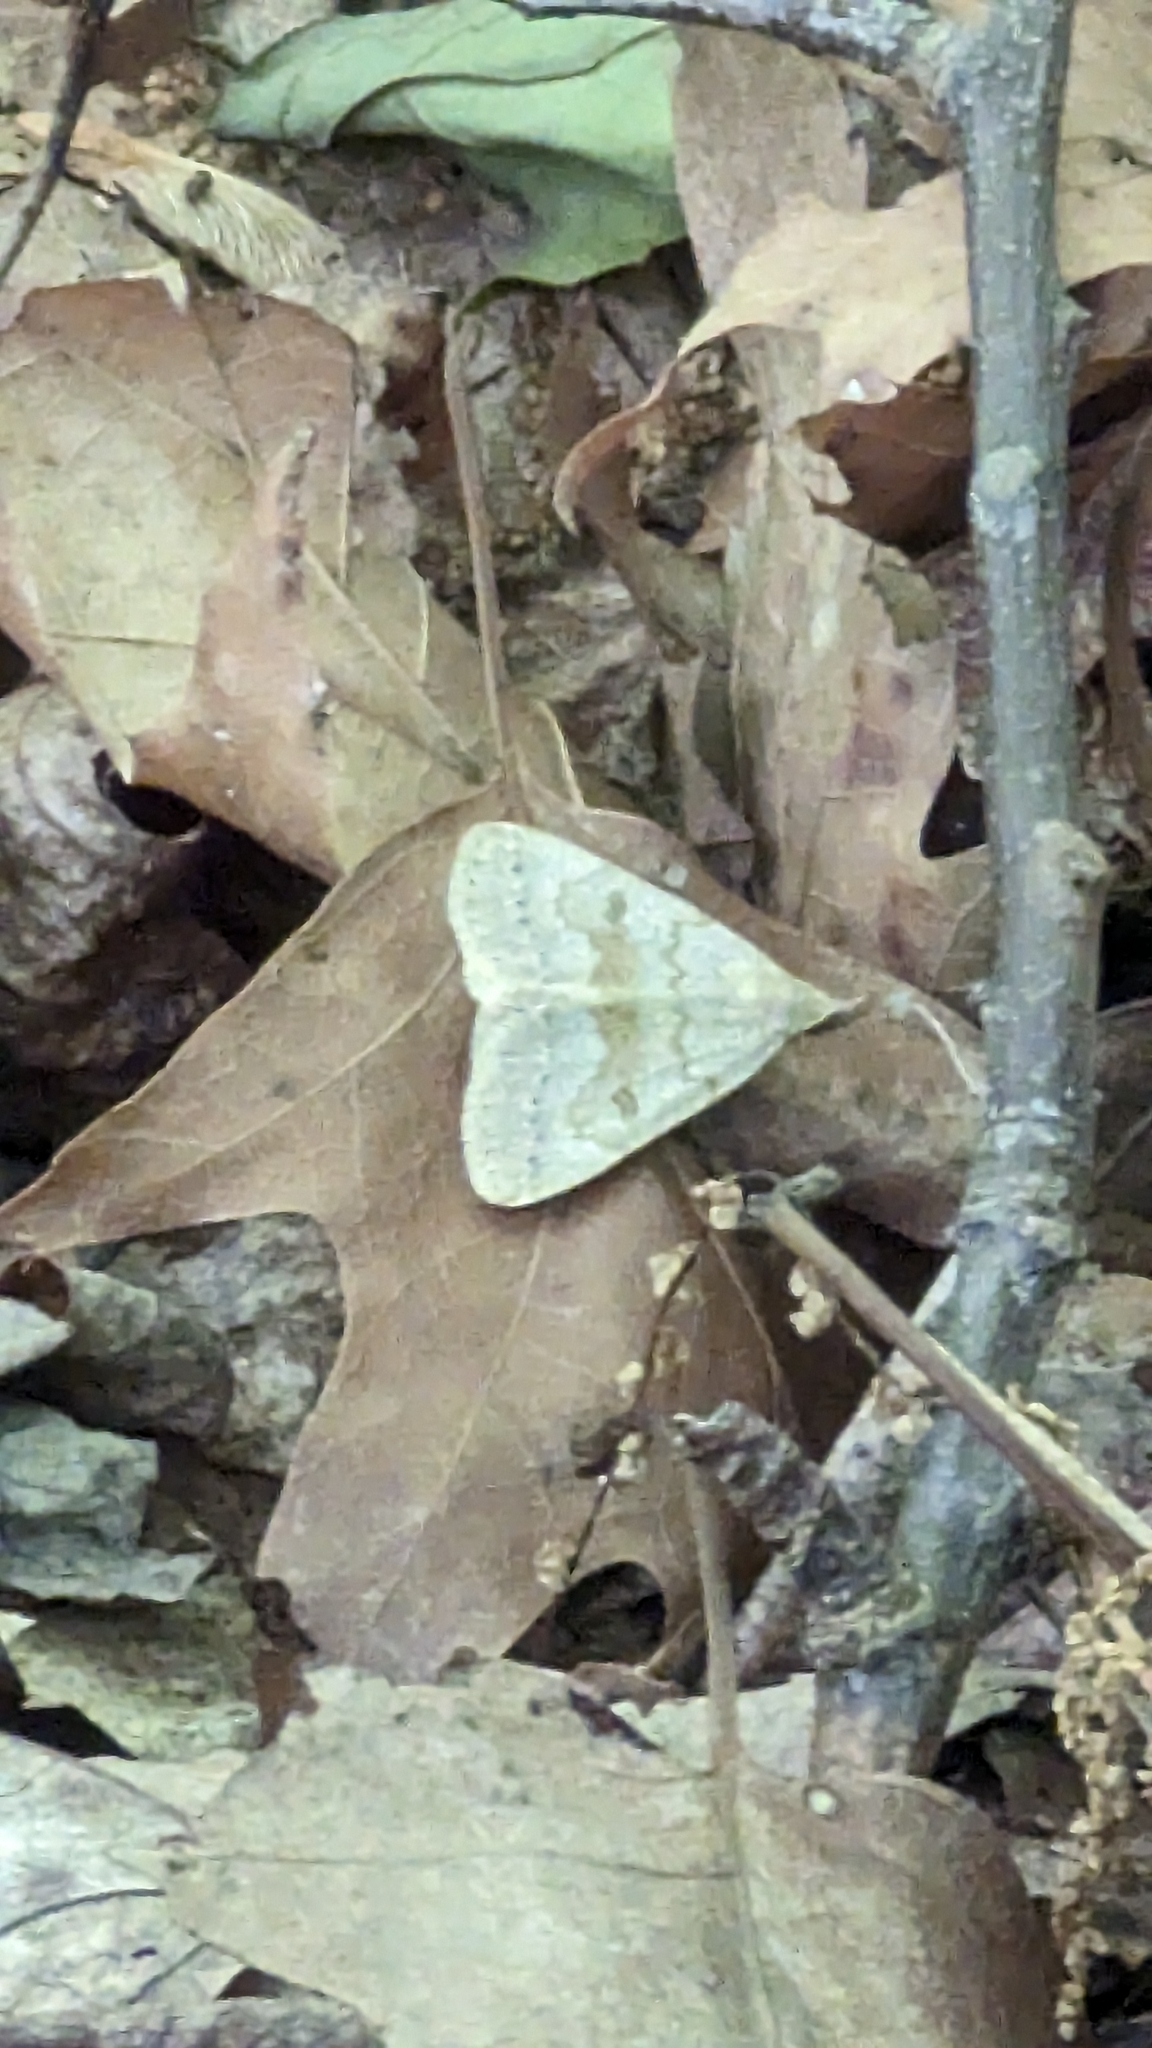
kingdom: Animalia
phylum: Arthropoda
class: Insecta
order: Lepidoptera
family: Erebidae
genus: Macrochilo
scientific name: Macrochilo morbidalis
